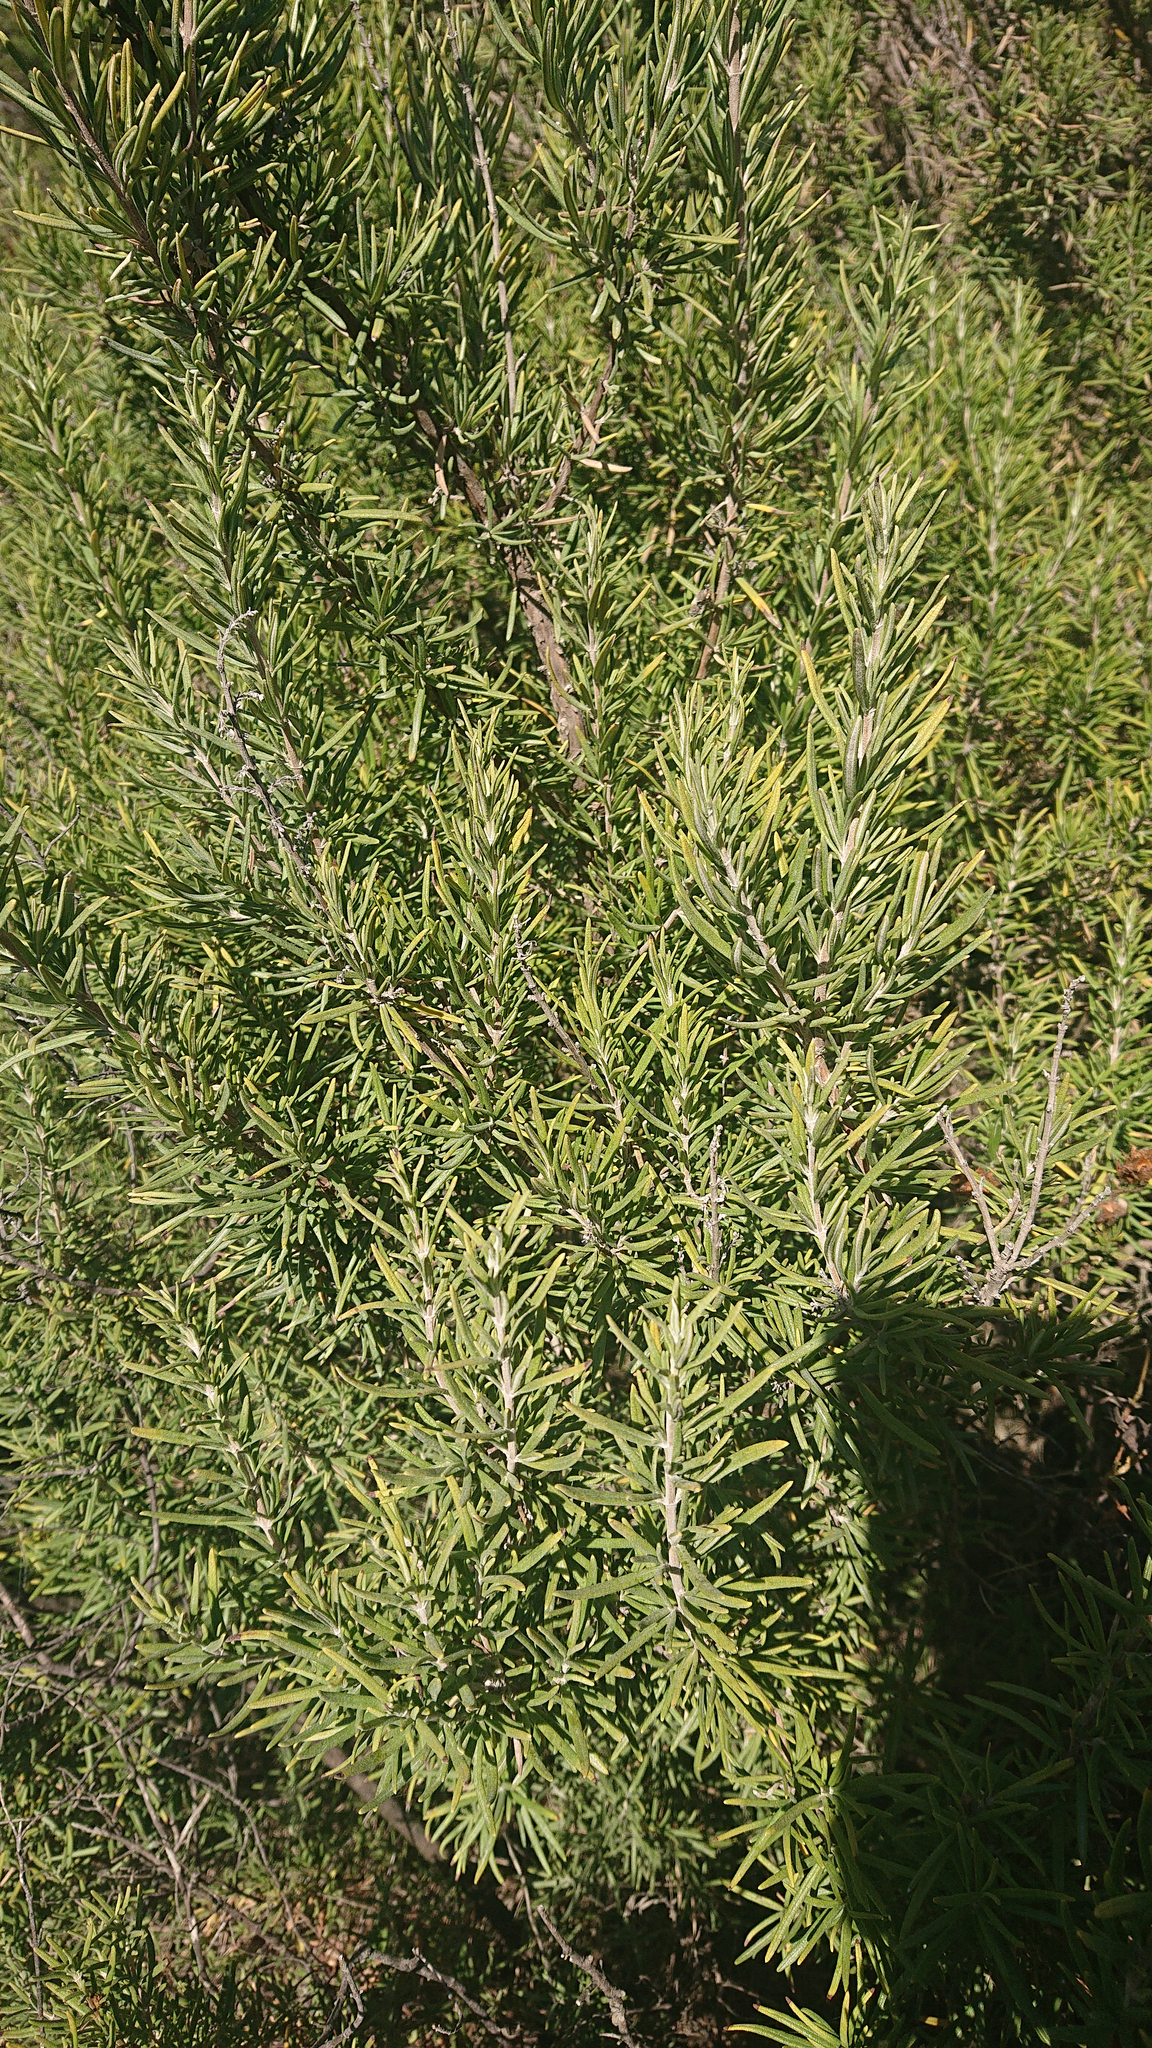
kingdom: Plantae
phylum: Tracheophyta
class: Magnoliopsida
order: Lamiales
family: Lamiaceae
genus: Salvia
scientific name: Salvia rosmarinus
